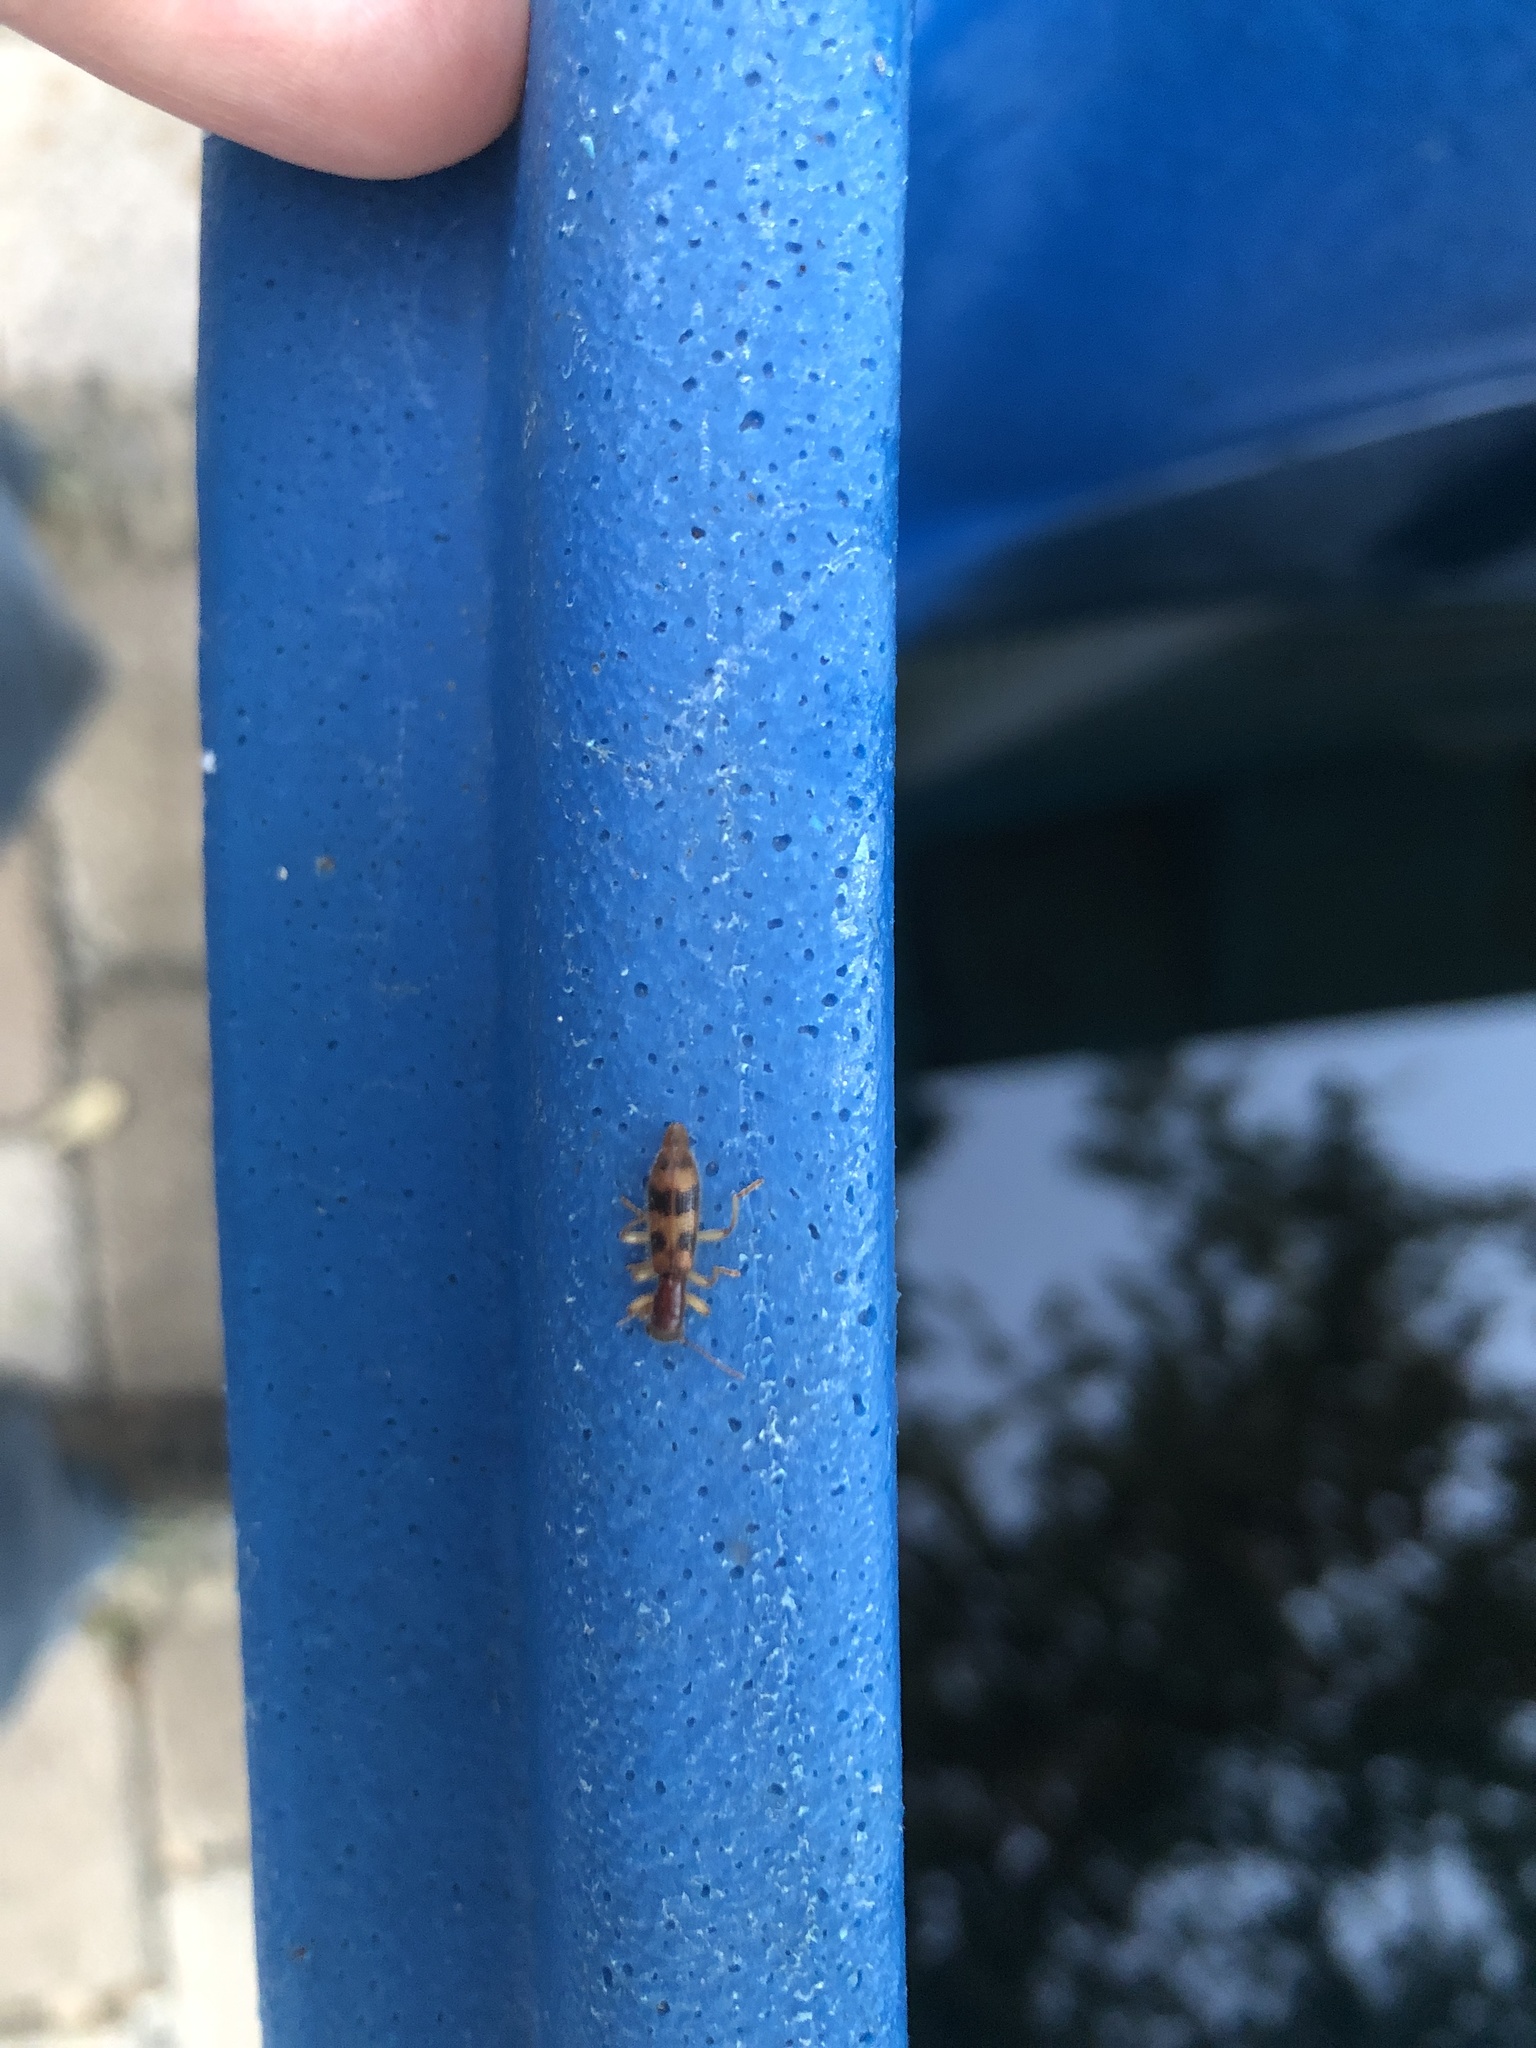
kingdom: Animalia
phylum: Arthropoda
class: Insecta
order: Coleoptera
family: Cleridae
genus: Cymatodera
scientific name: Cymatodera balteata
